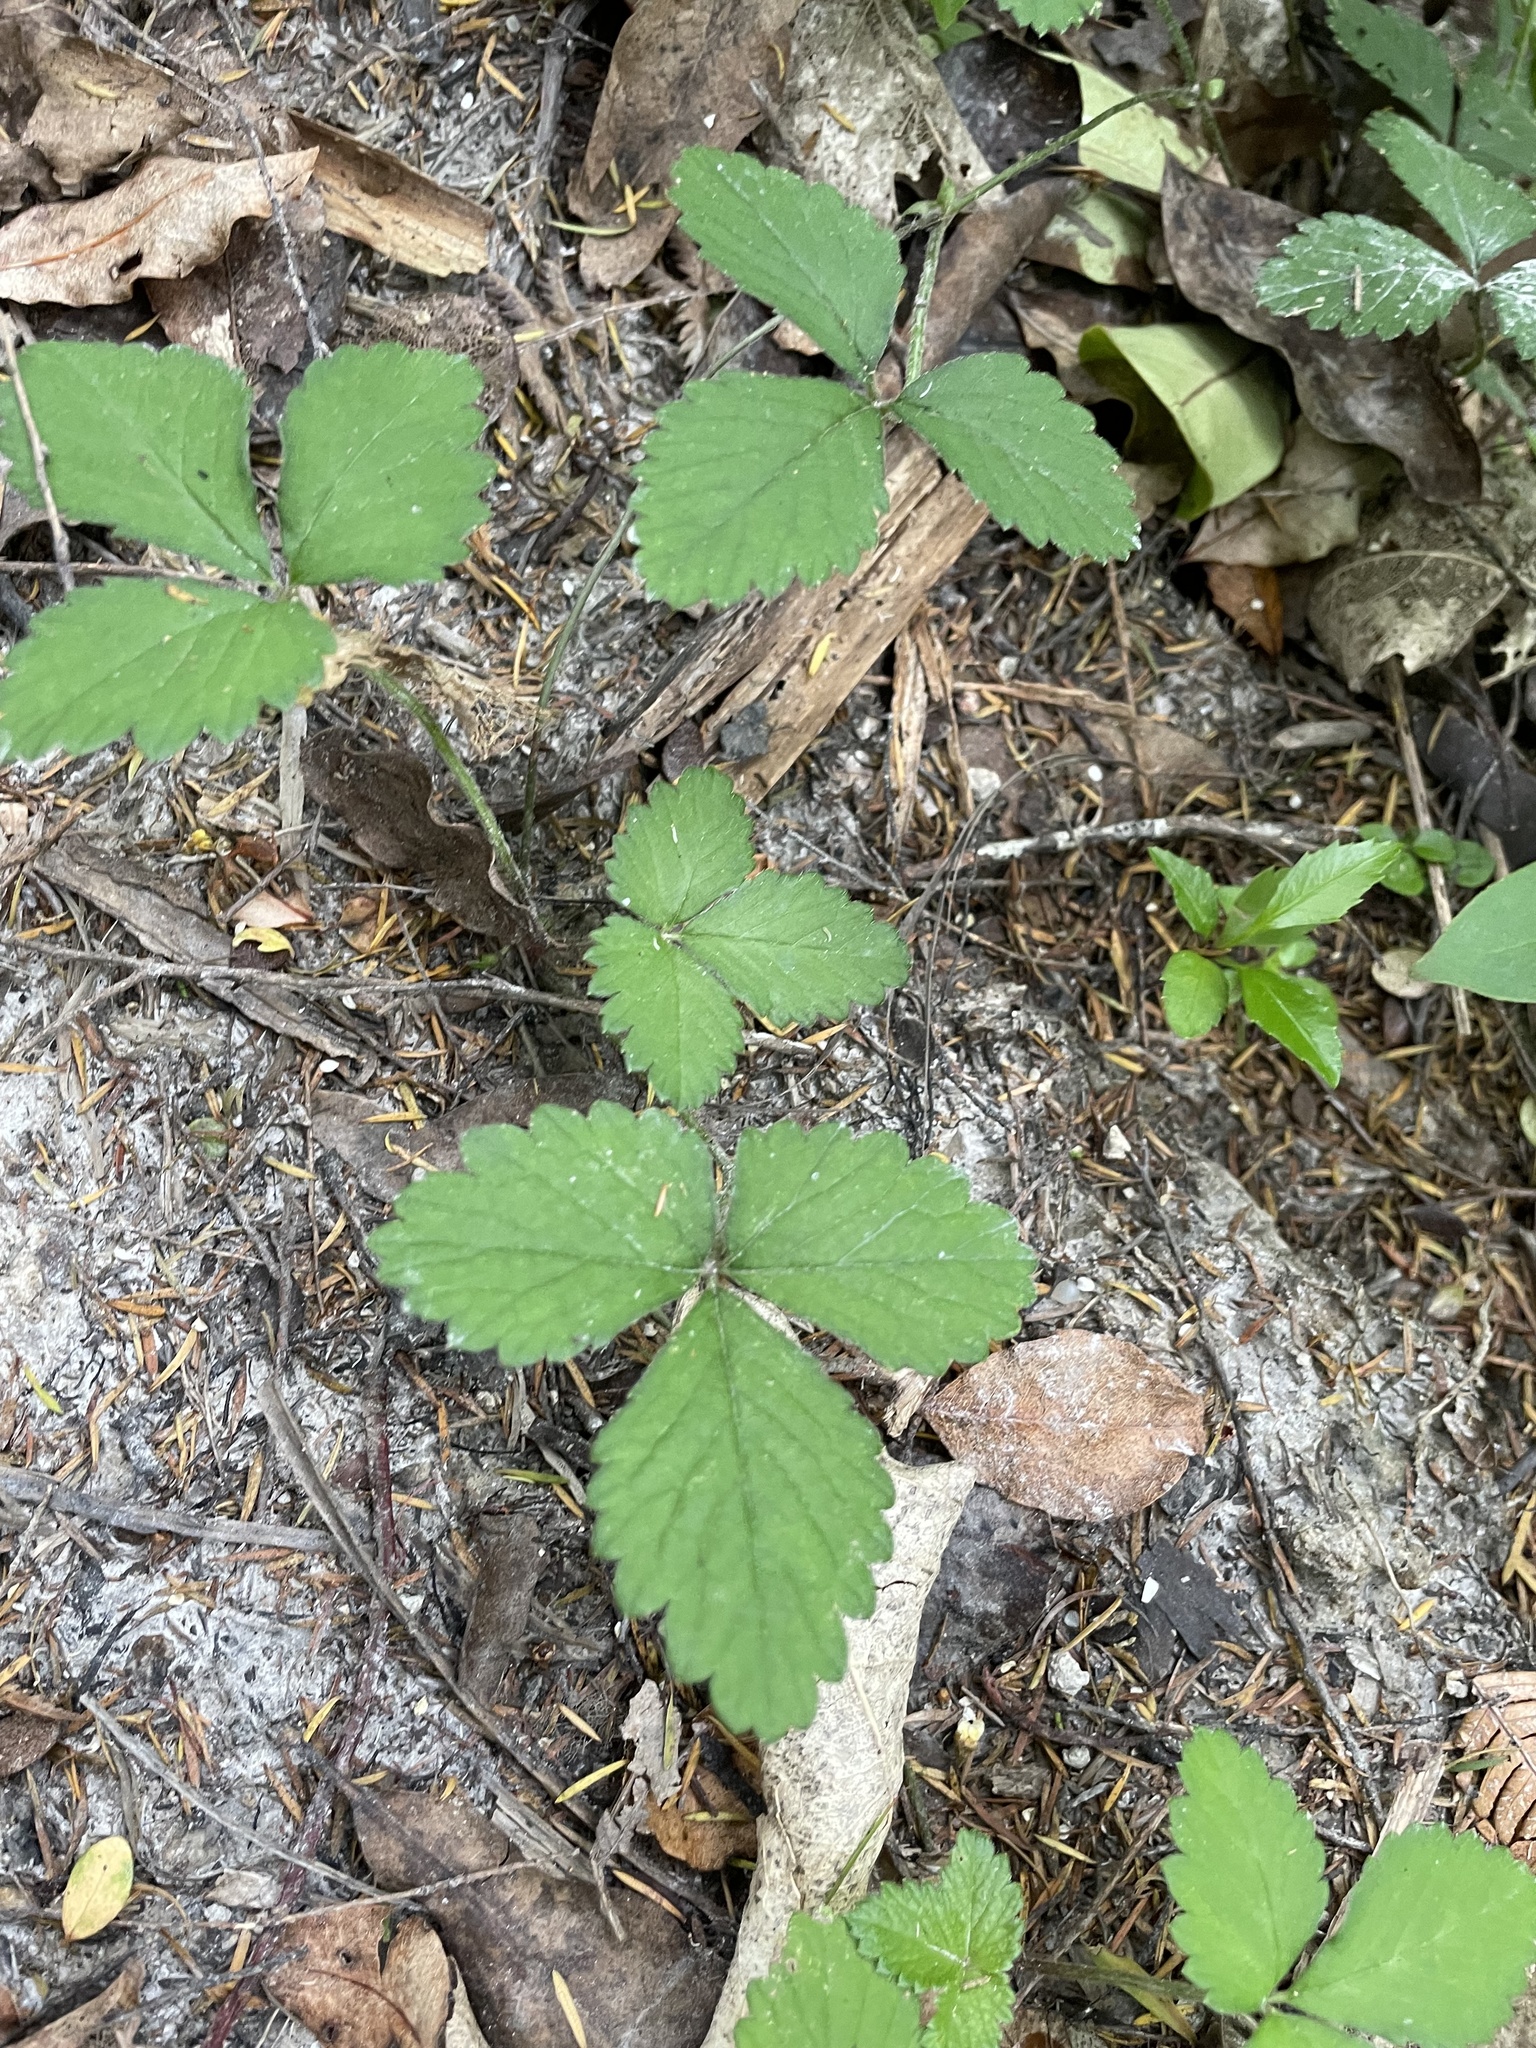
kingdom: Plantae
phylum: Tracheophyta
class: Magnoliopsida
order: Rosales
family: Rosaceae
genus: Potentilla
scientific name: Potentilla indica
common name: Yellow-flowered strawberry
